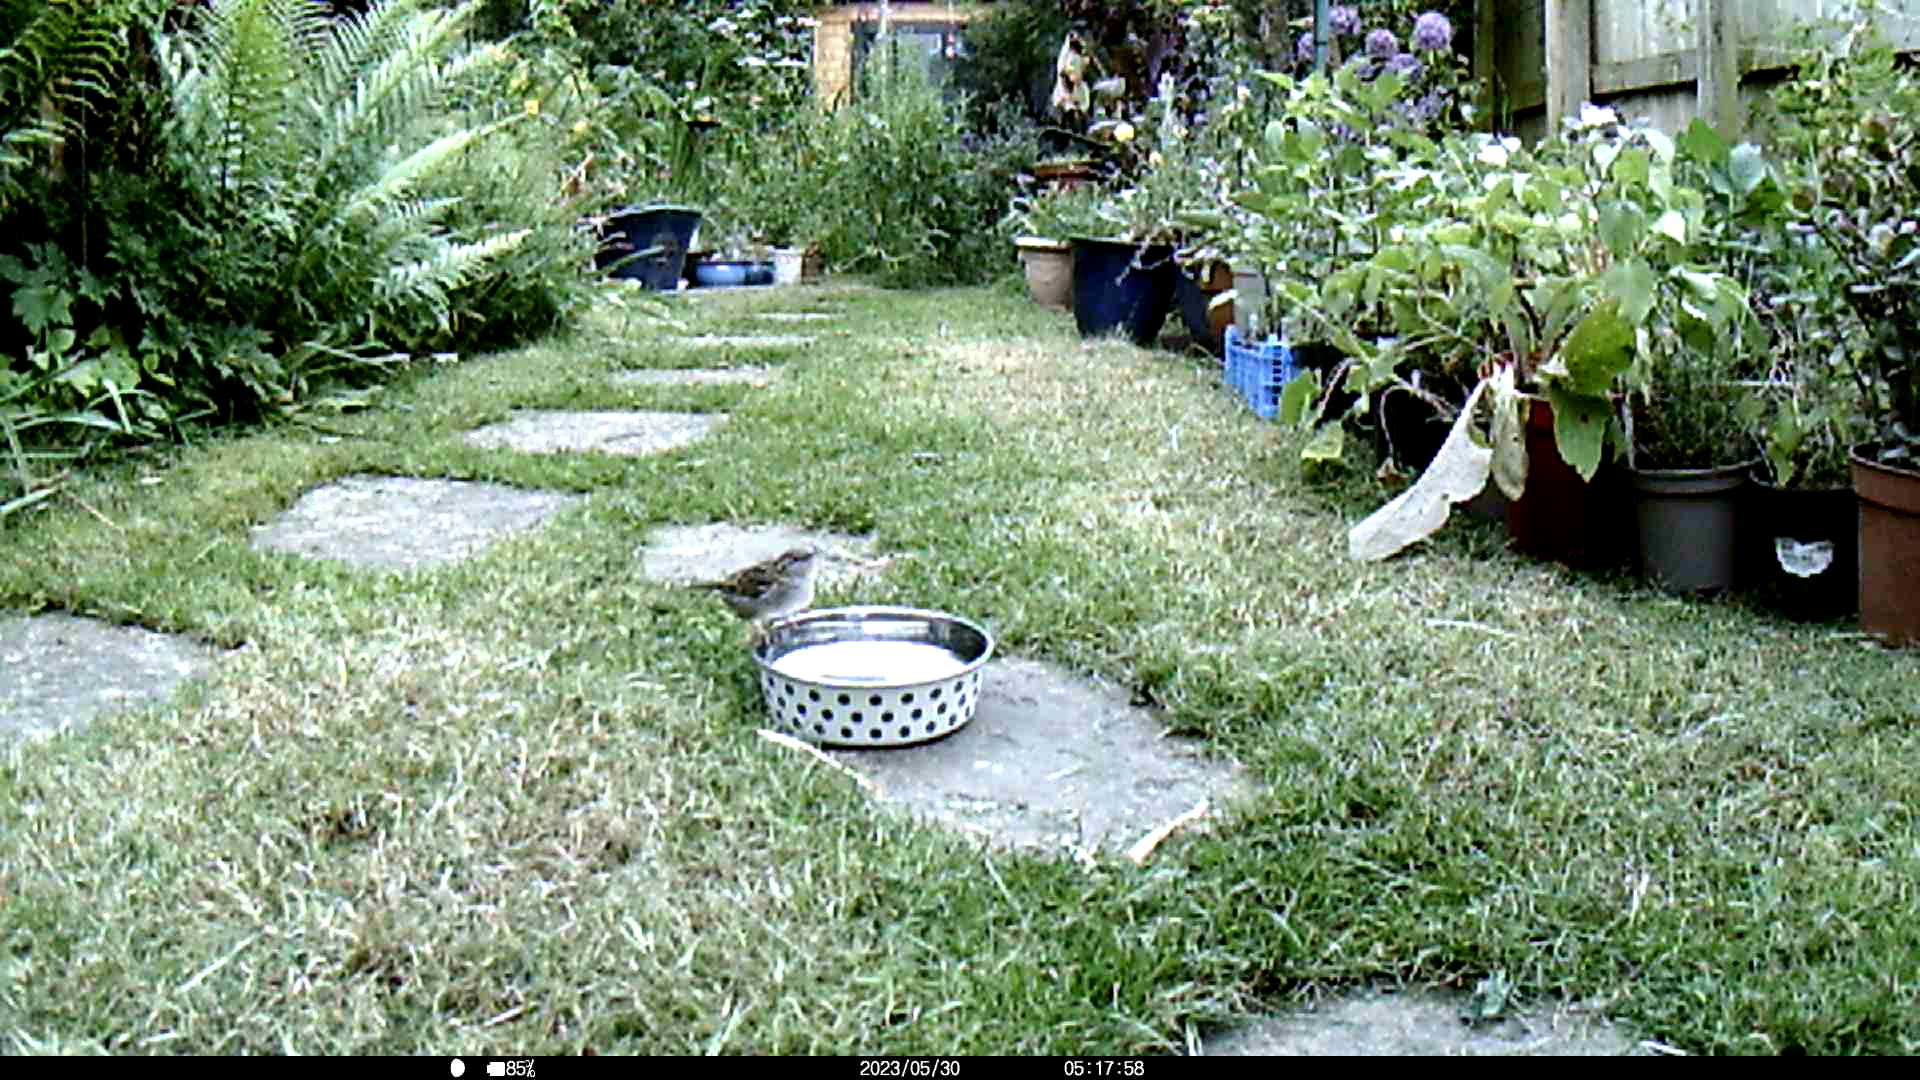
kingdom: Animalia
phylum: Chordata
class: Aves
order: Passeriformes
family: Passeridae
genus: Passer
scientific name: Passer domesticus
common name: House sparrow
